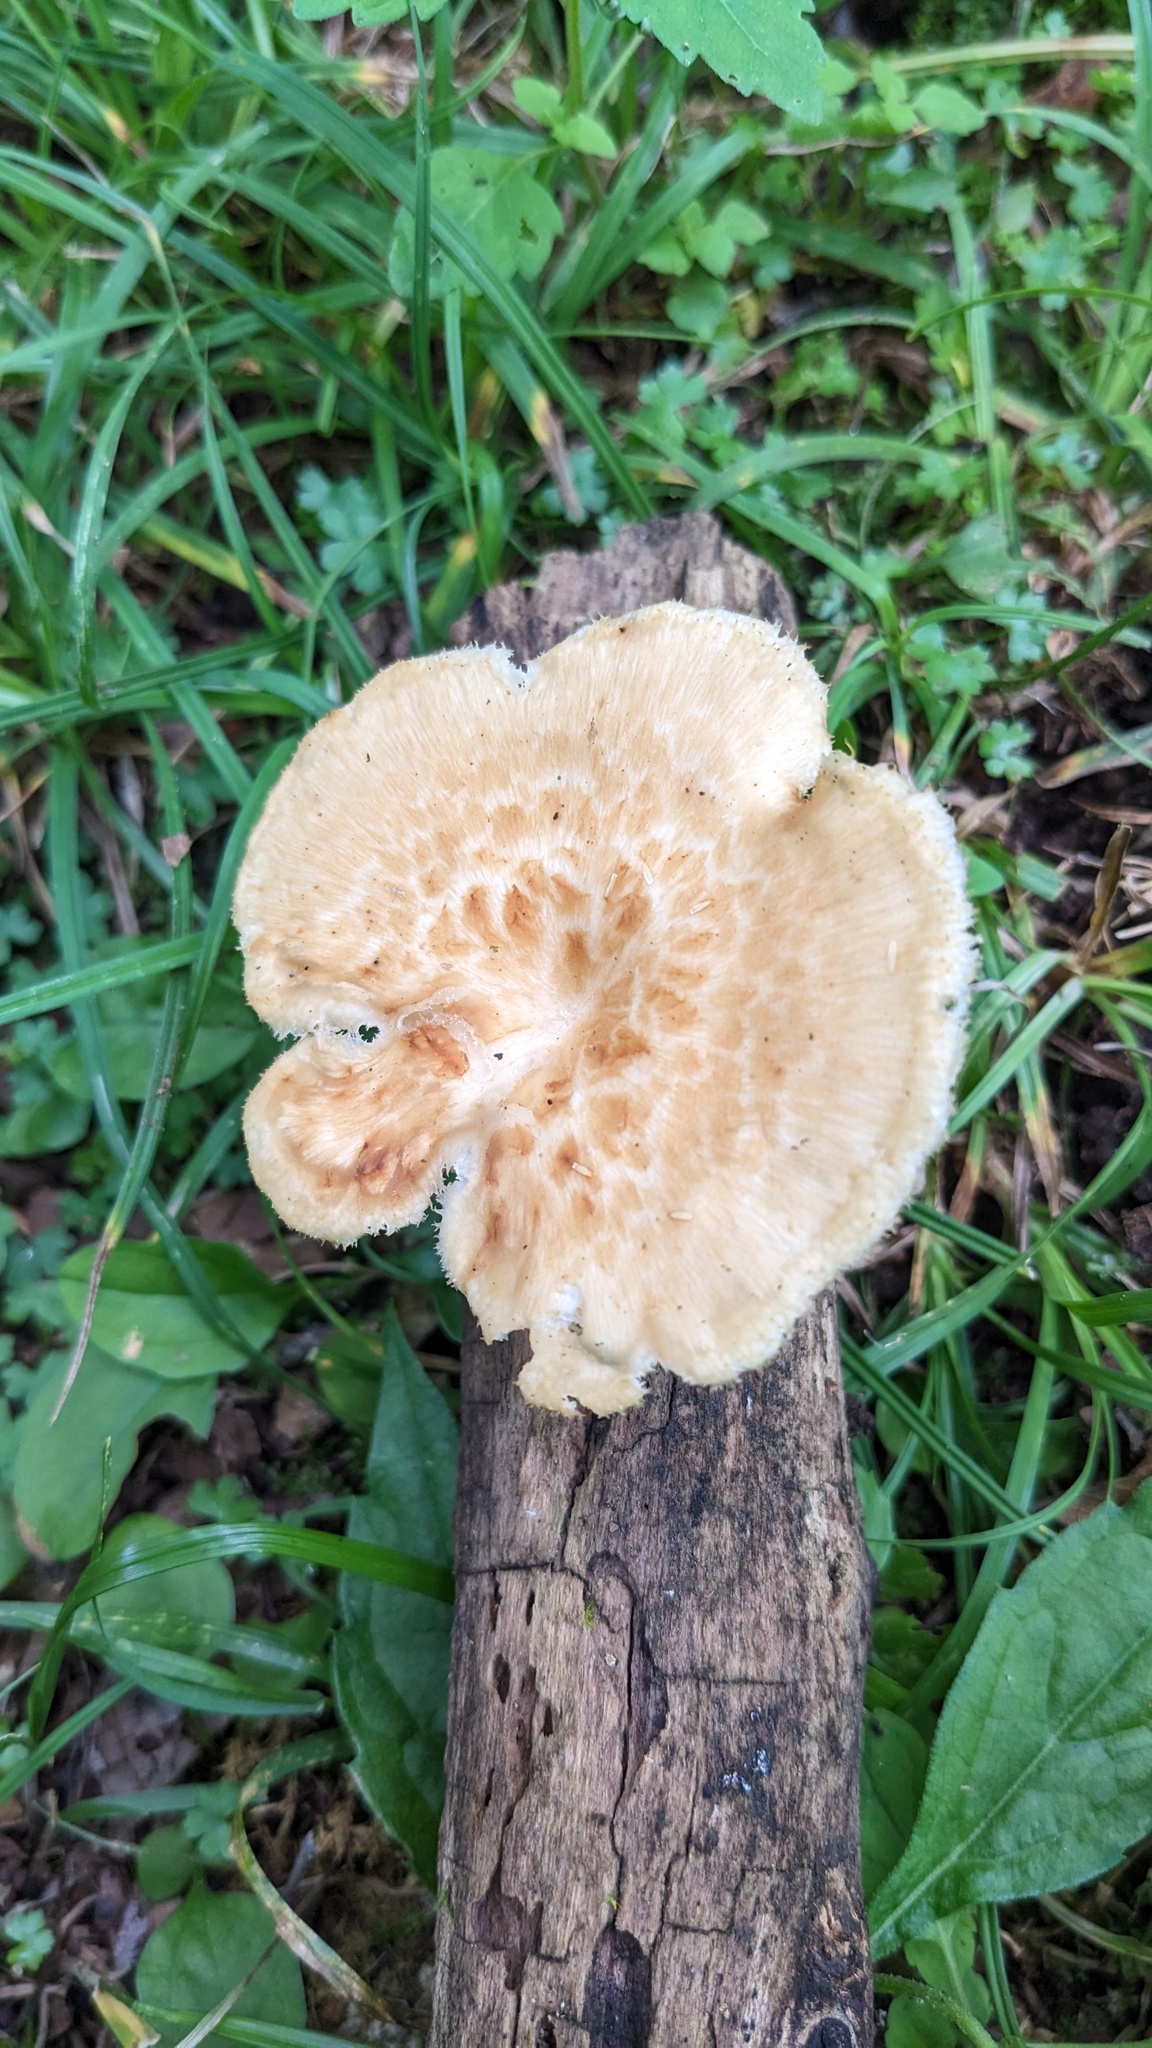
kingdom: Fungi
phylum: Basidiomycota
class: Agaricomycetes
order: Polyporales
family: Polyporaceae
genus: Polyporus
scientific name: Polyporus tuberaster
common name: Tuberous polypore
